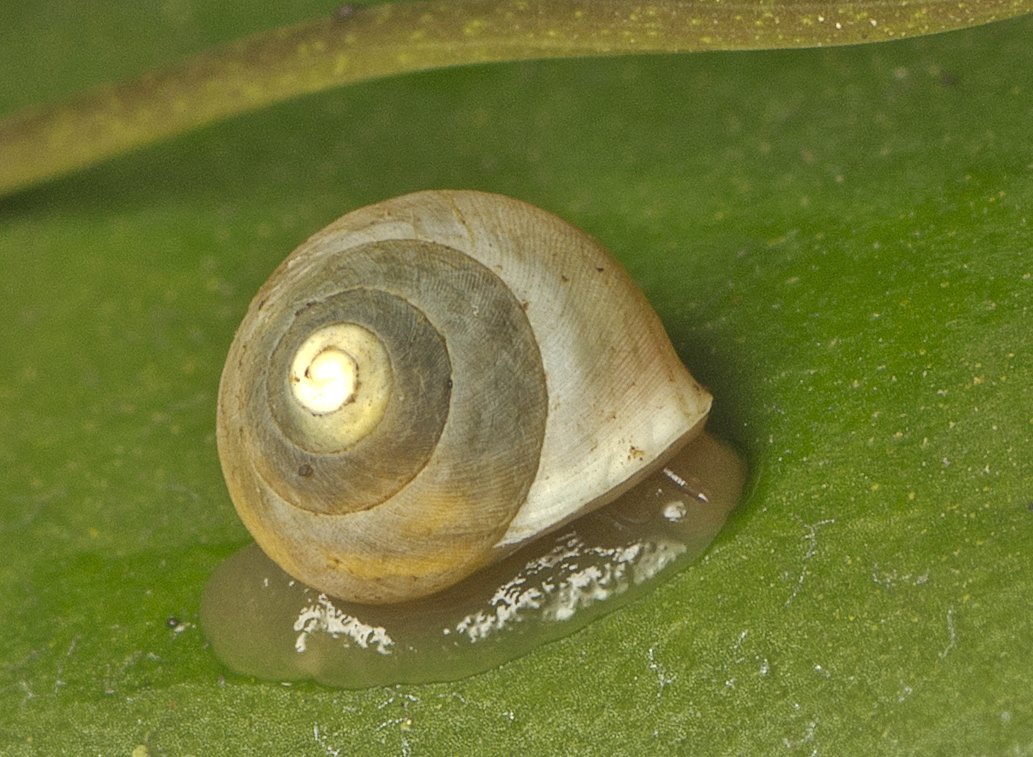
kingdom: Animalia
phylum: Mollusca
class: Gastropoda
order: Cycloneritida
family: Helicinidae
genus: Pleuropoma
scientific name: Pleuropoma draytonensis
